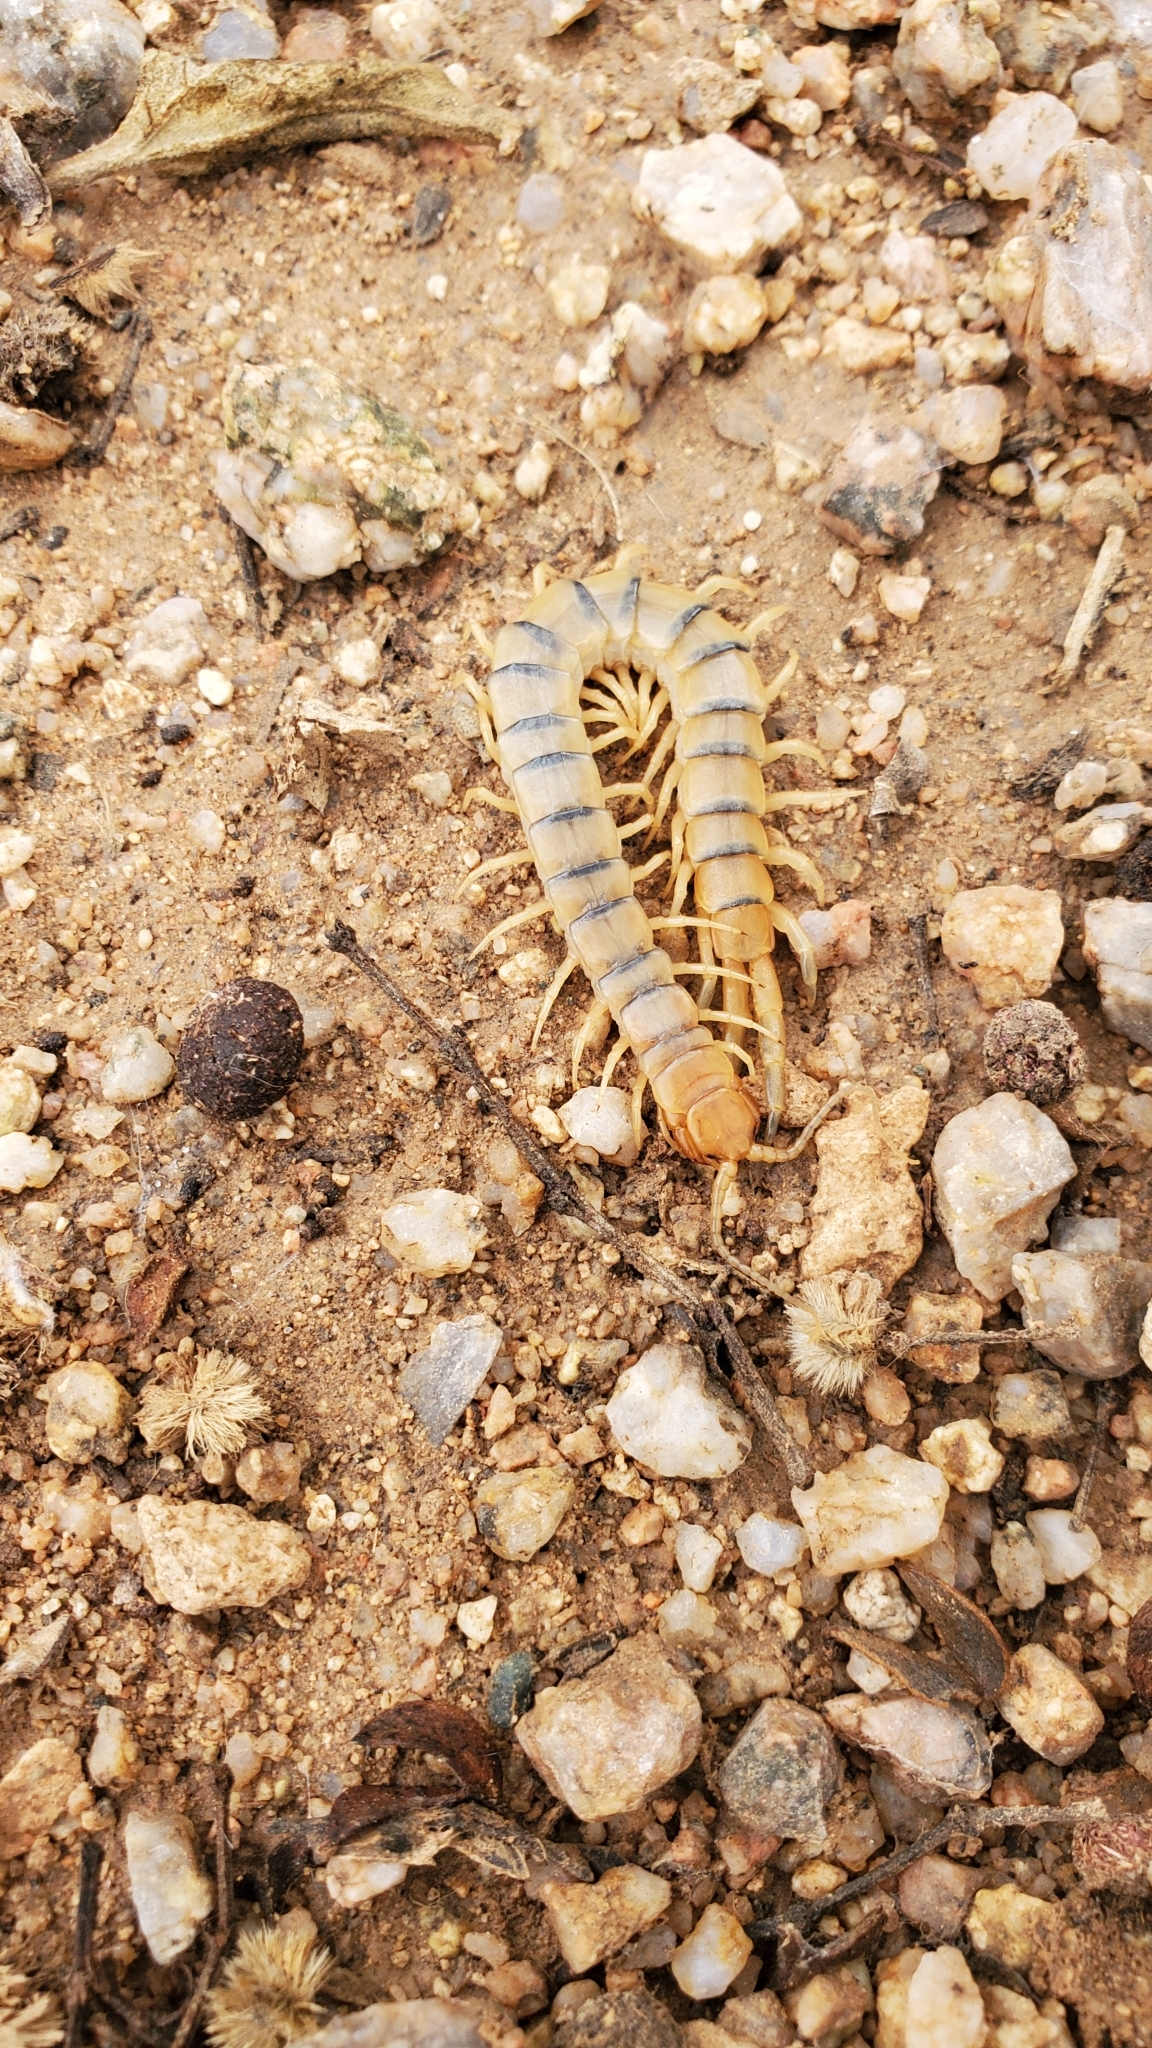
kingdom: Animalia
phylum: Arthropoda
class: Chilopoda
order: Scolopendromorpha
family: Scolopendridae
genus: Scolopendra
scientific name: Scolopendra polymorpha
